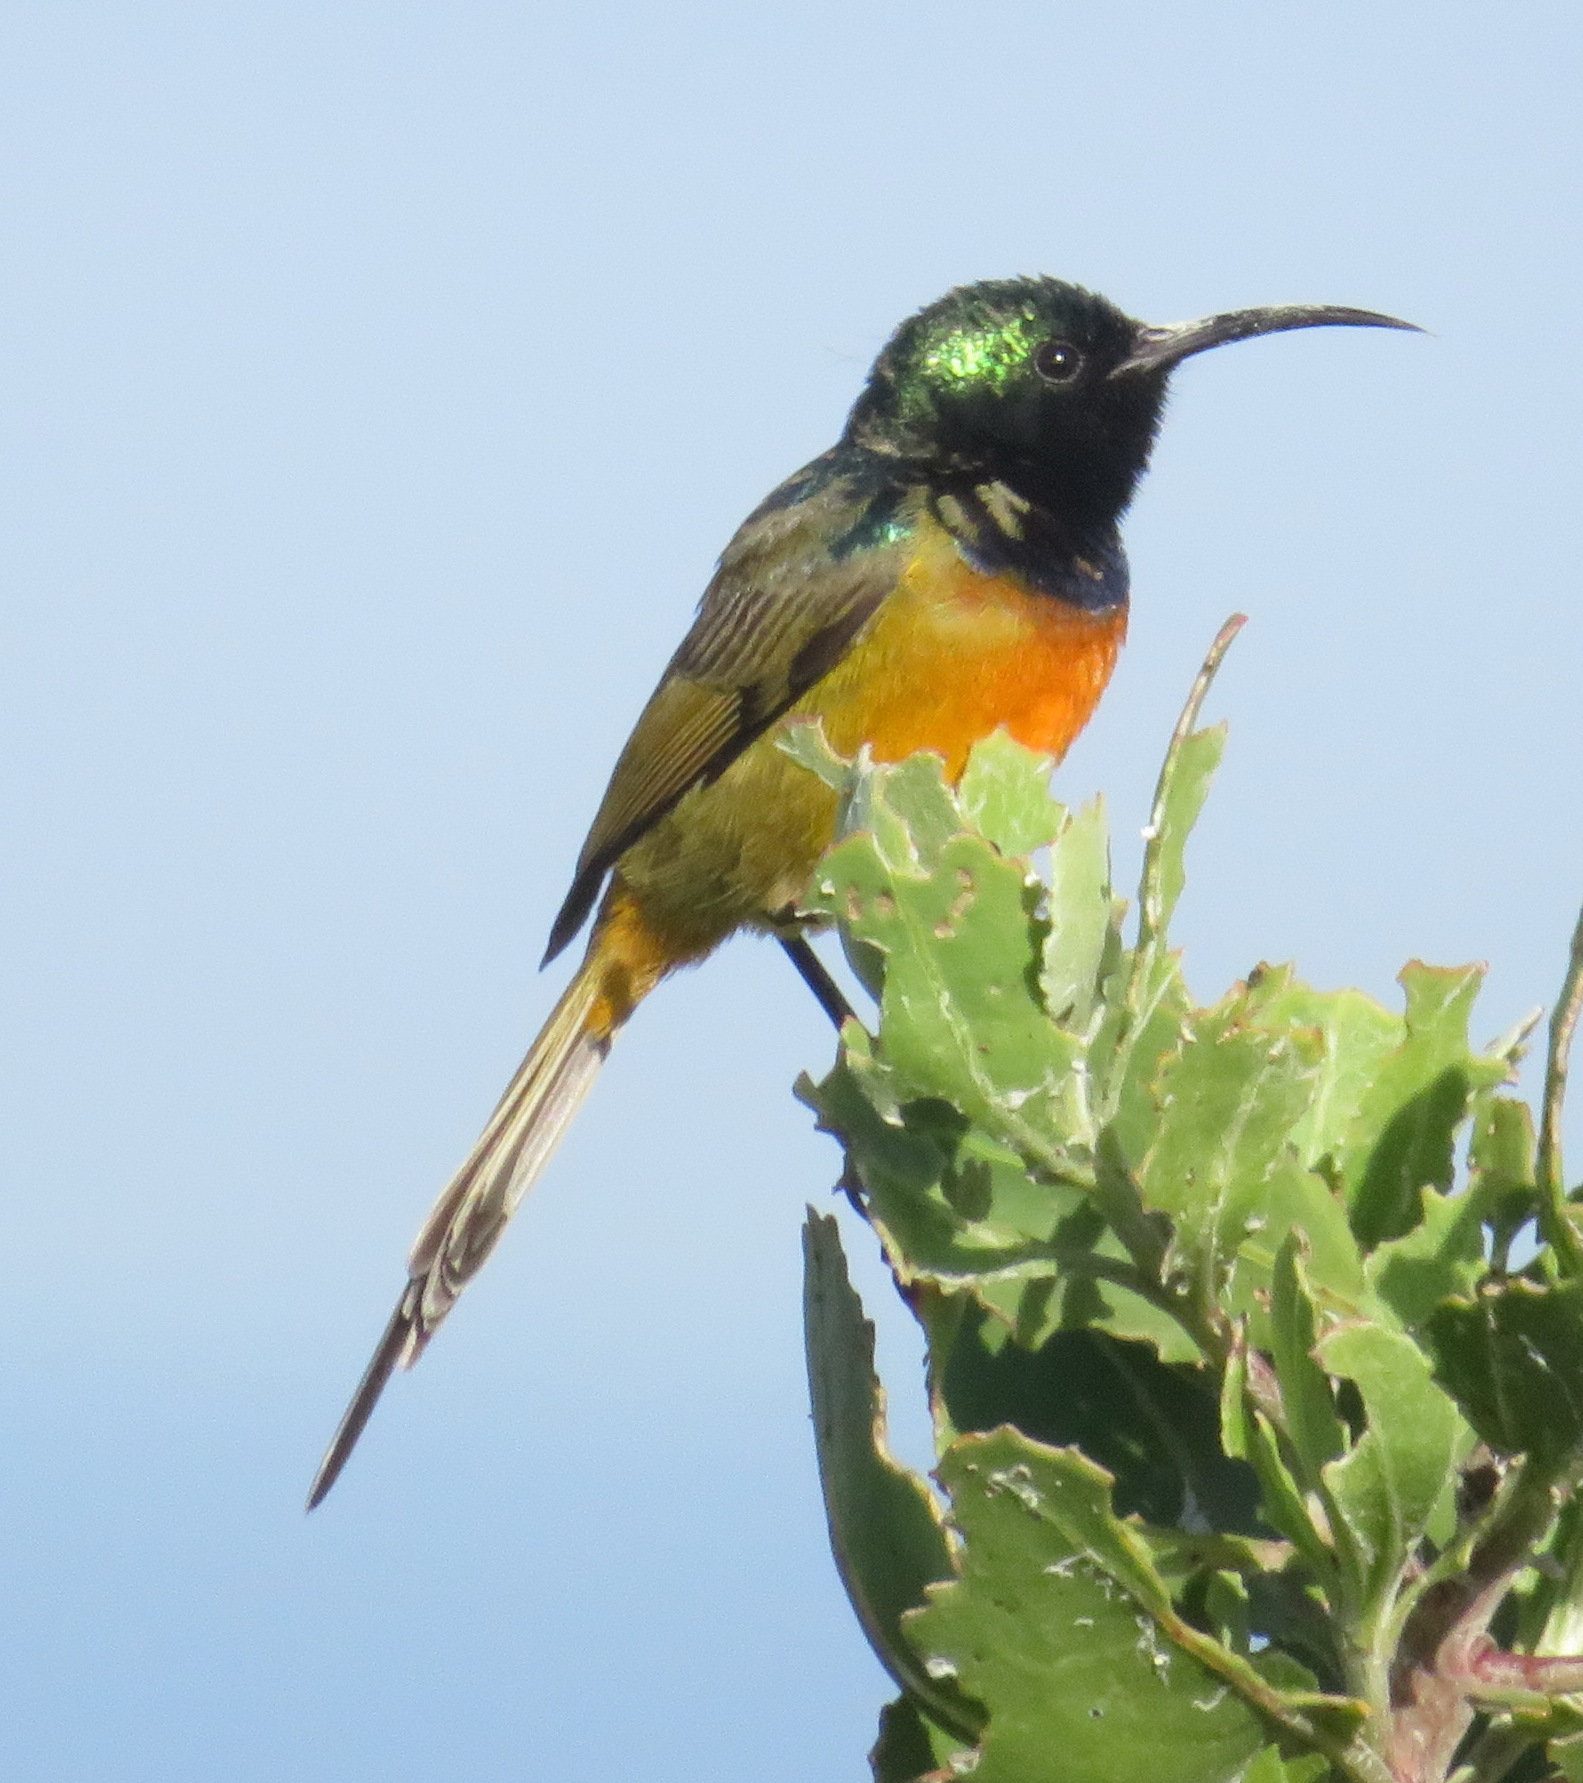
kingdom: Animalia
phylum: Chordata
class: Aves
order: Passeriformes
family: Nectariniidae
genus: Anthobaphes
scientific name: Anthobaphes violacea
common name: Orange-breasted sunbird
